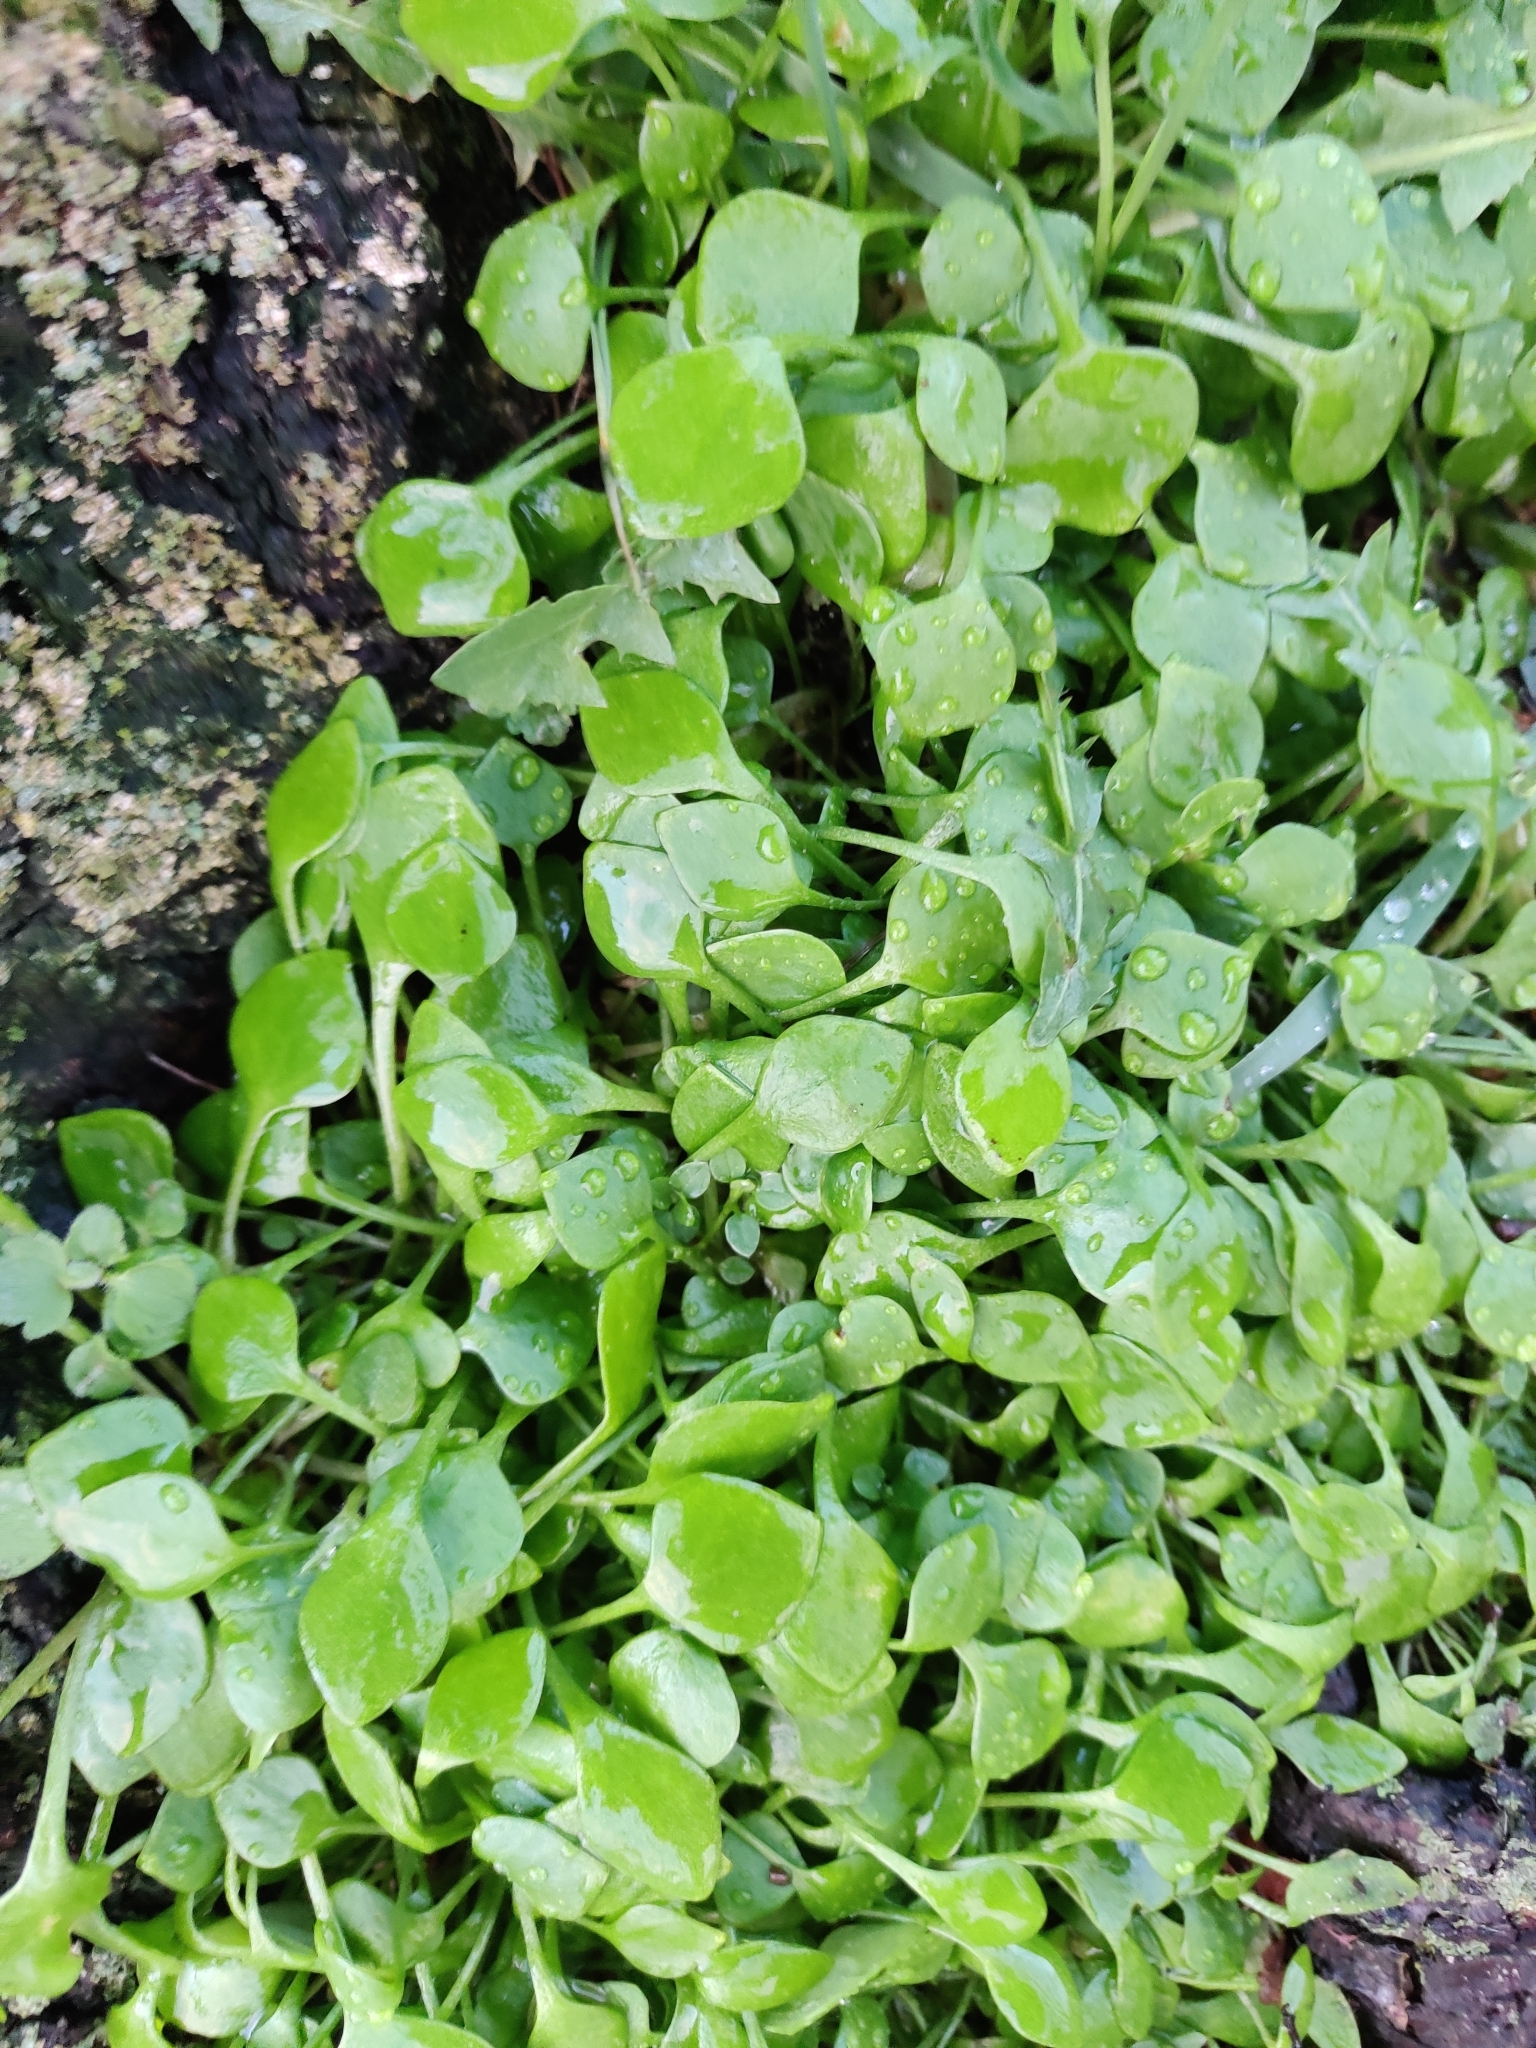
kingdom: Plantae
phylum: Tracheophyta
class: Magnoliopsida
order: Caryophyllales
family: Montiaceae
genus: Claytonia
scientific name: Claytonia perfoliata
